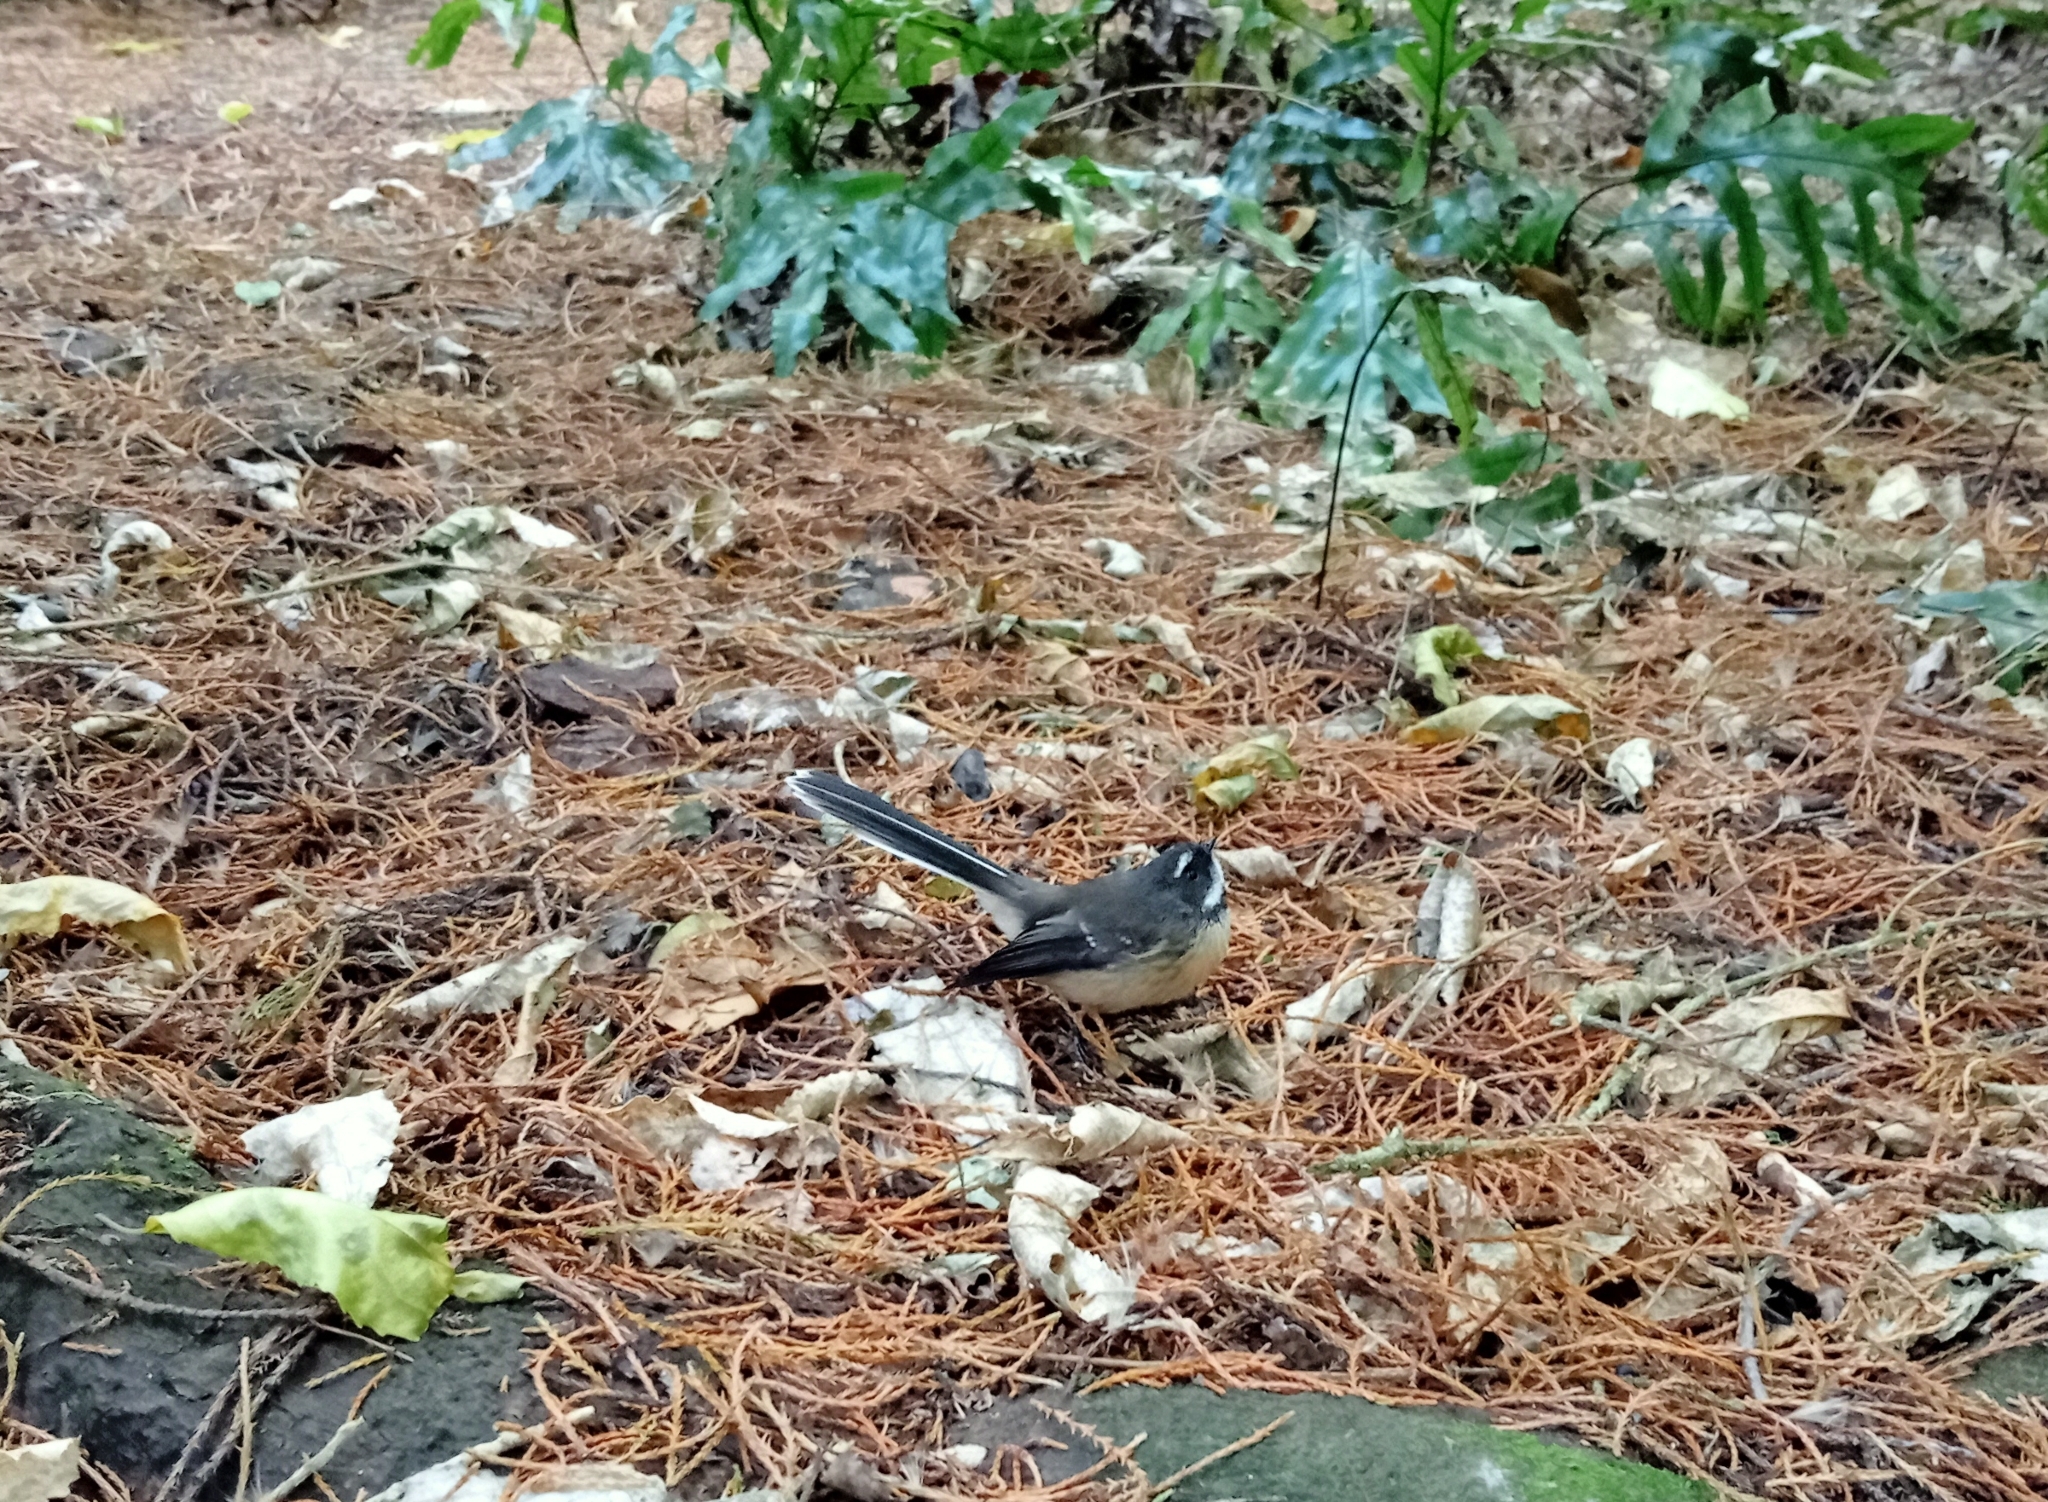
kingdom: Animalia
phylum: Chordata
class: Aves
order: Passeriformes
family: Rhipiduridae
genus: Rhipidura
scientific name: Rhipidura fuliginosa
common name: New zealand fantail
